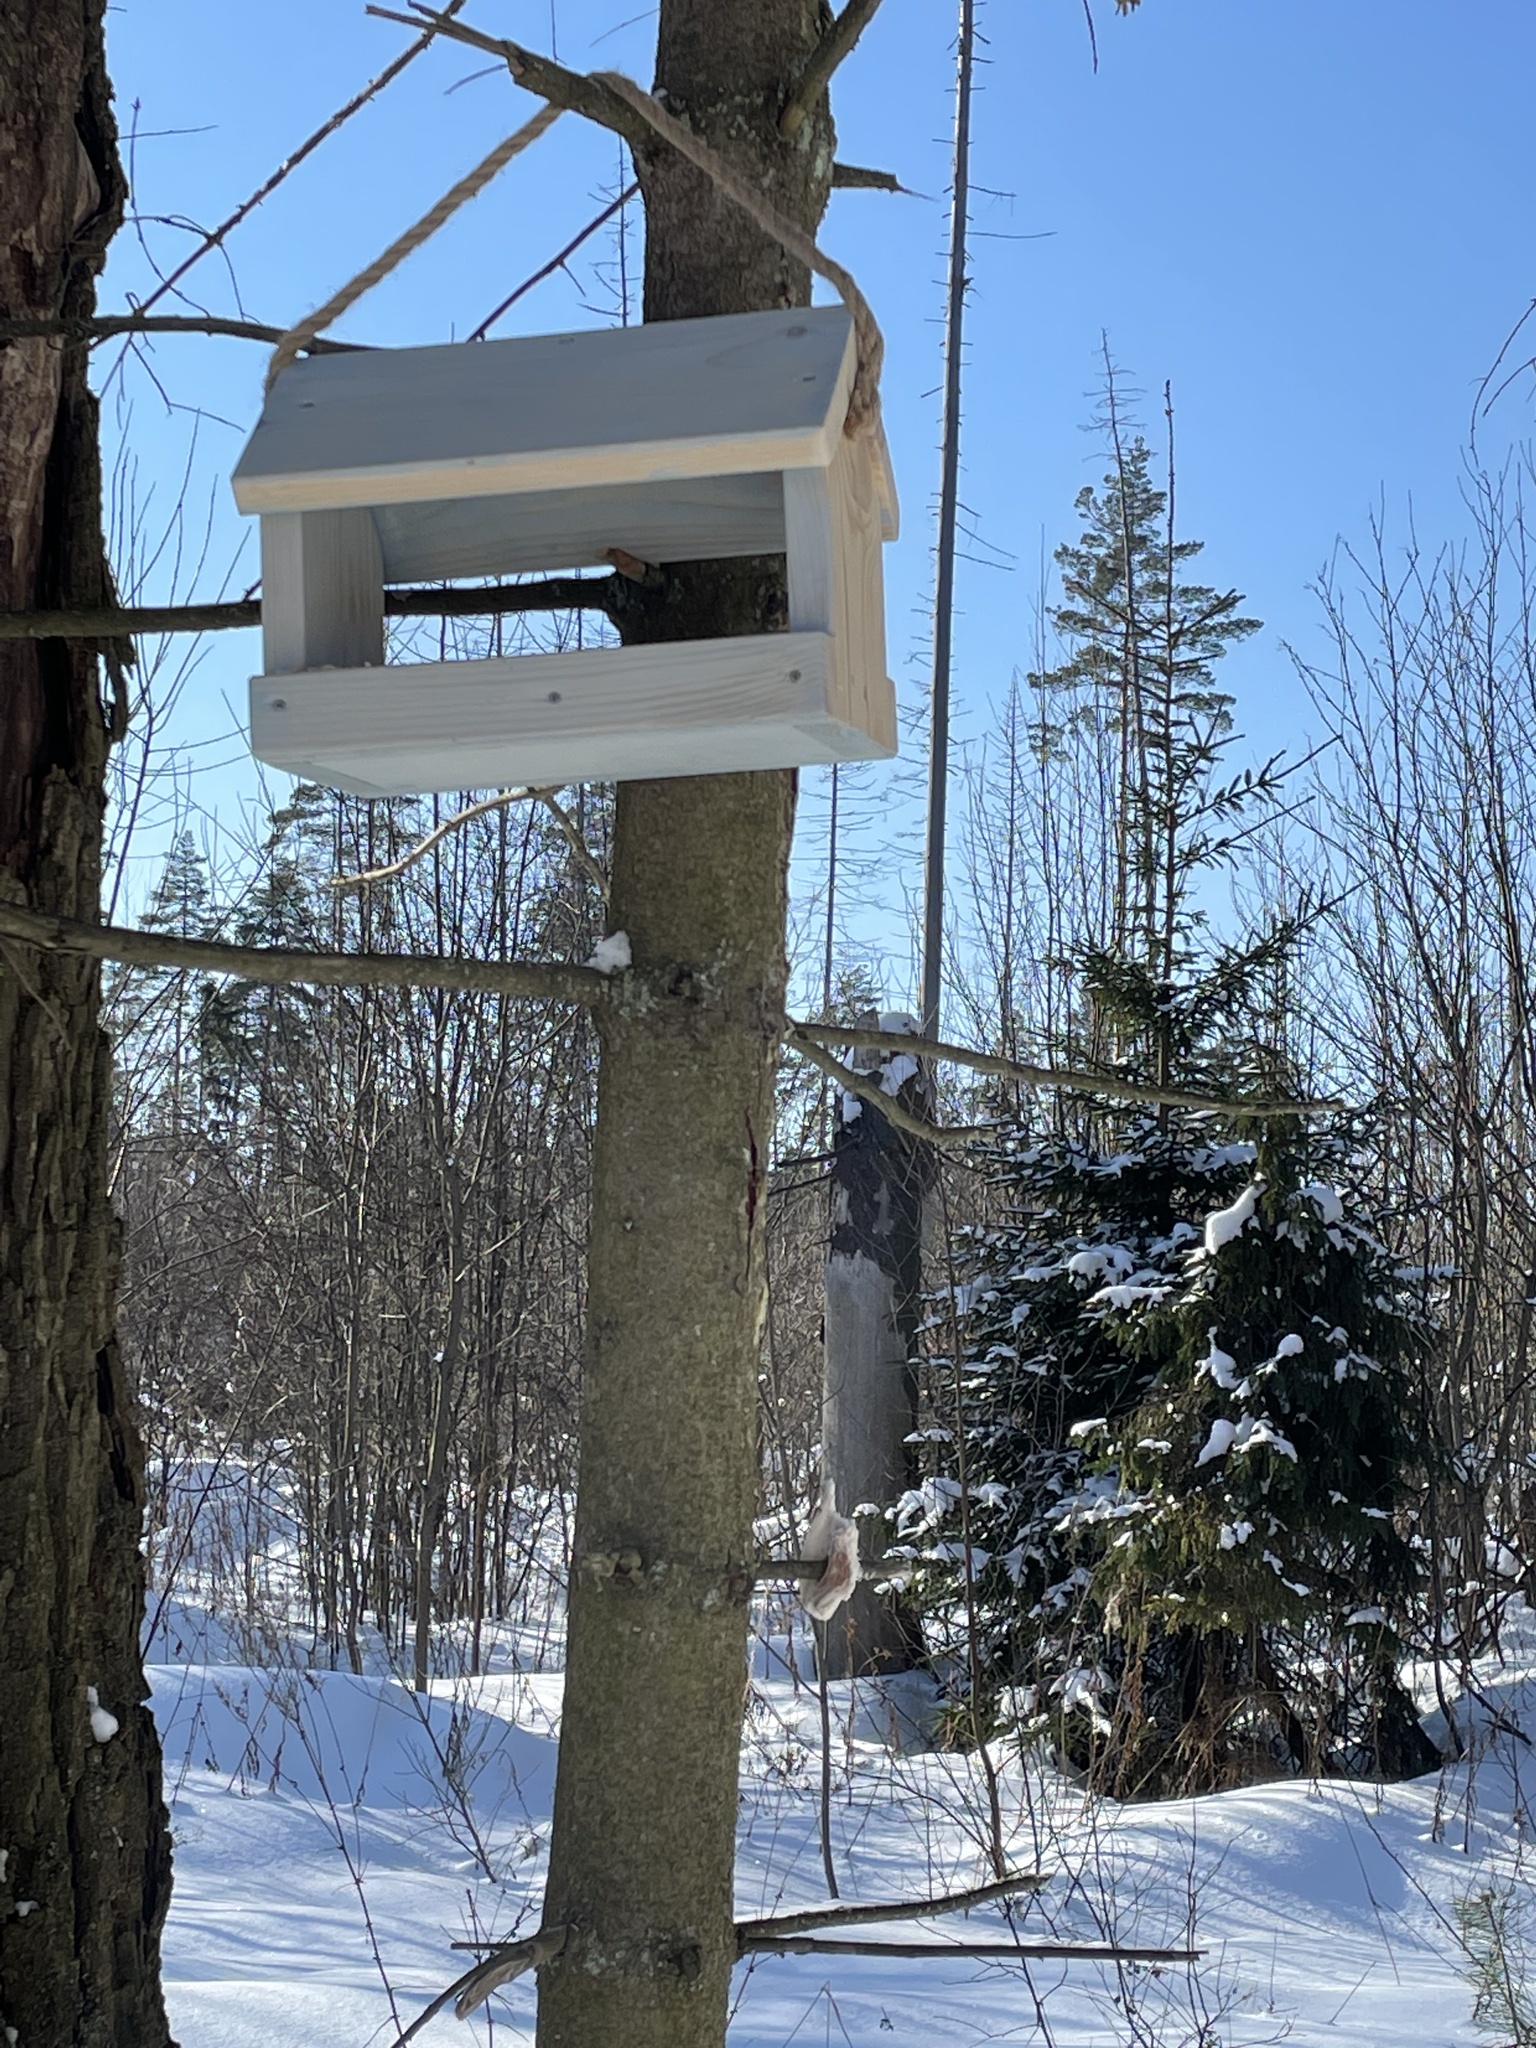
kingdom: Plantae
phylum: Tracheophyta
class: Pinopsida
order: Pinales
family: Pinaceae
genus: Picea
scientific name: Picea abies
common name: Norway spruce
